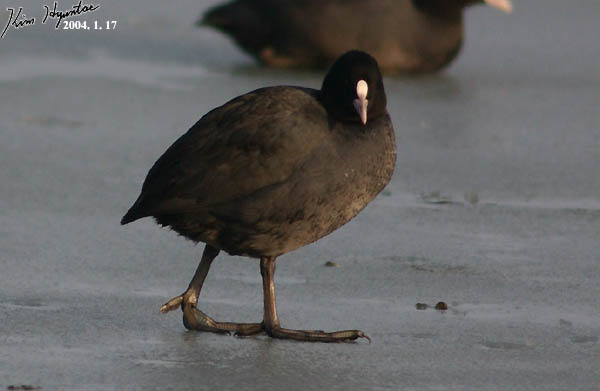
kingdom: Animalia
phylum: Chordata
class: Aves
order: Gruiformes
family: Rallidae
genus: Fulica
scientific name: Fulica atra
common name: Eurasian coot
